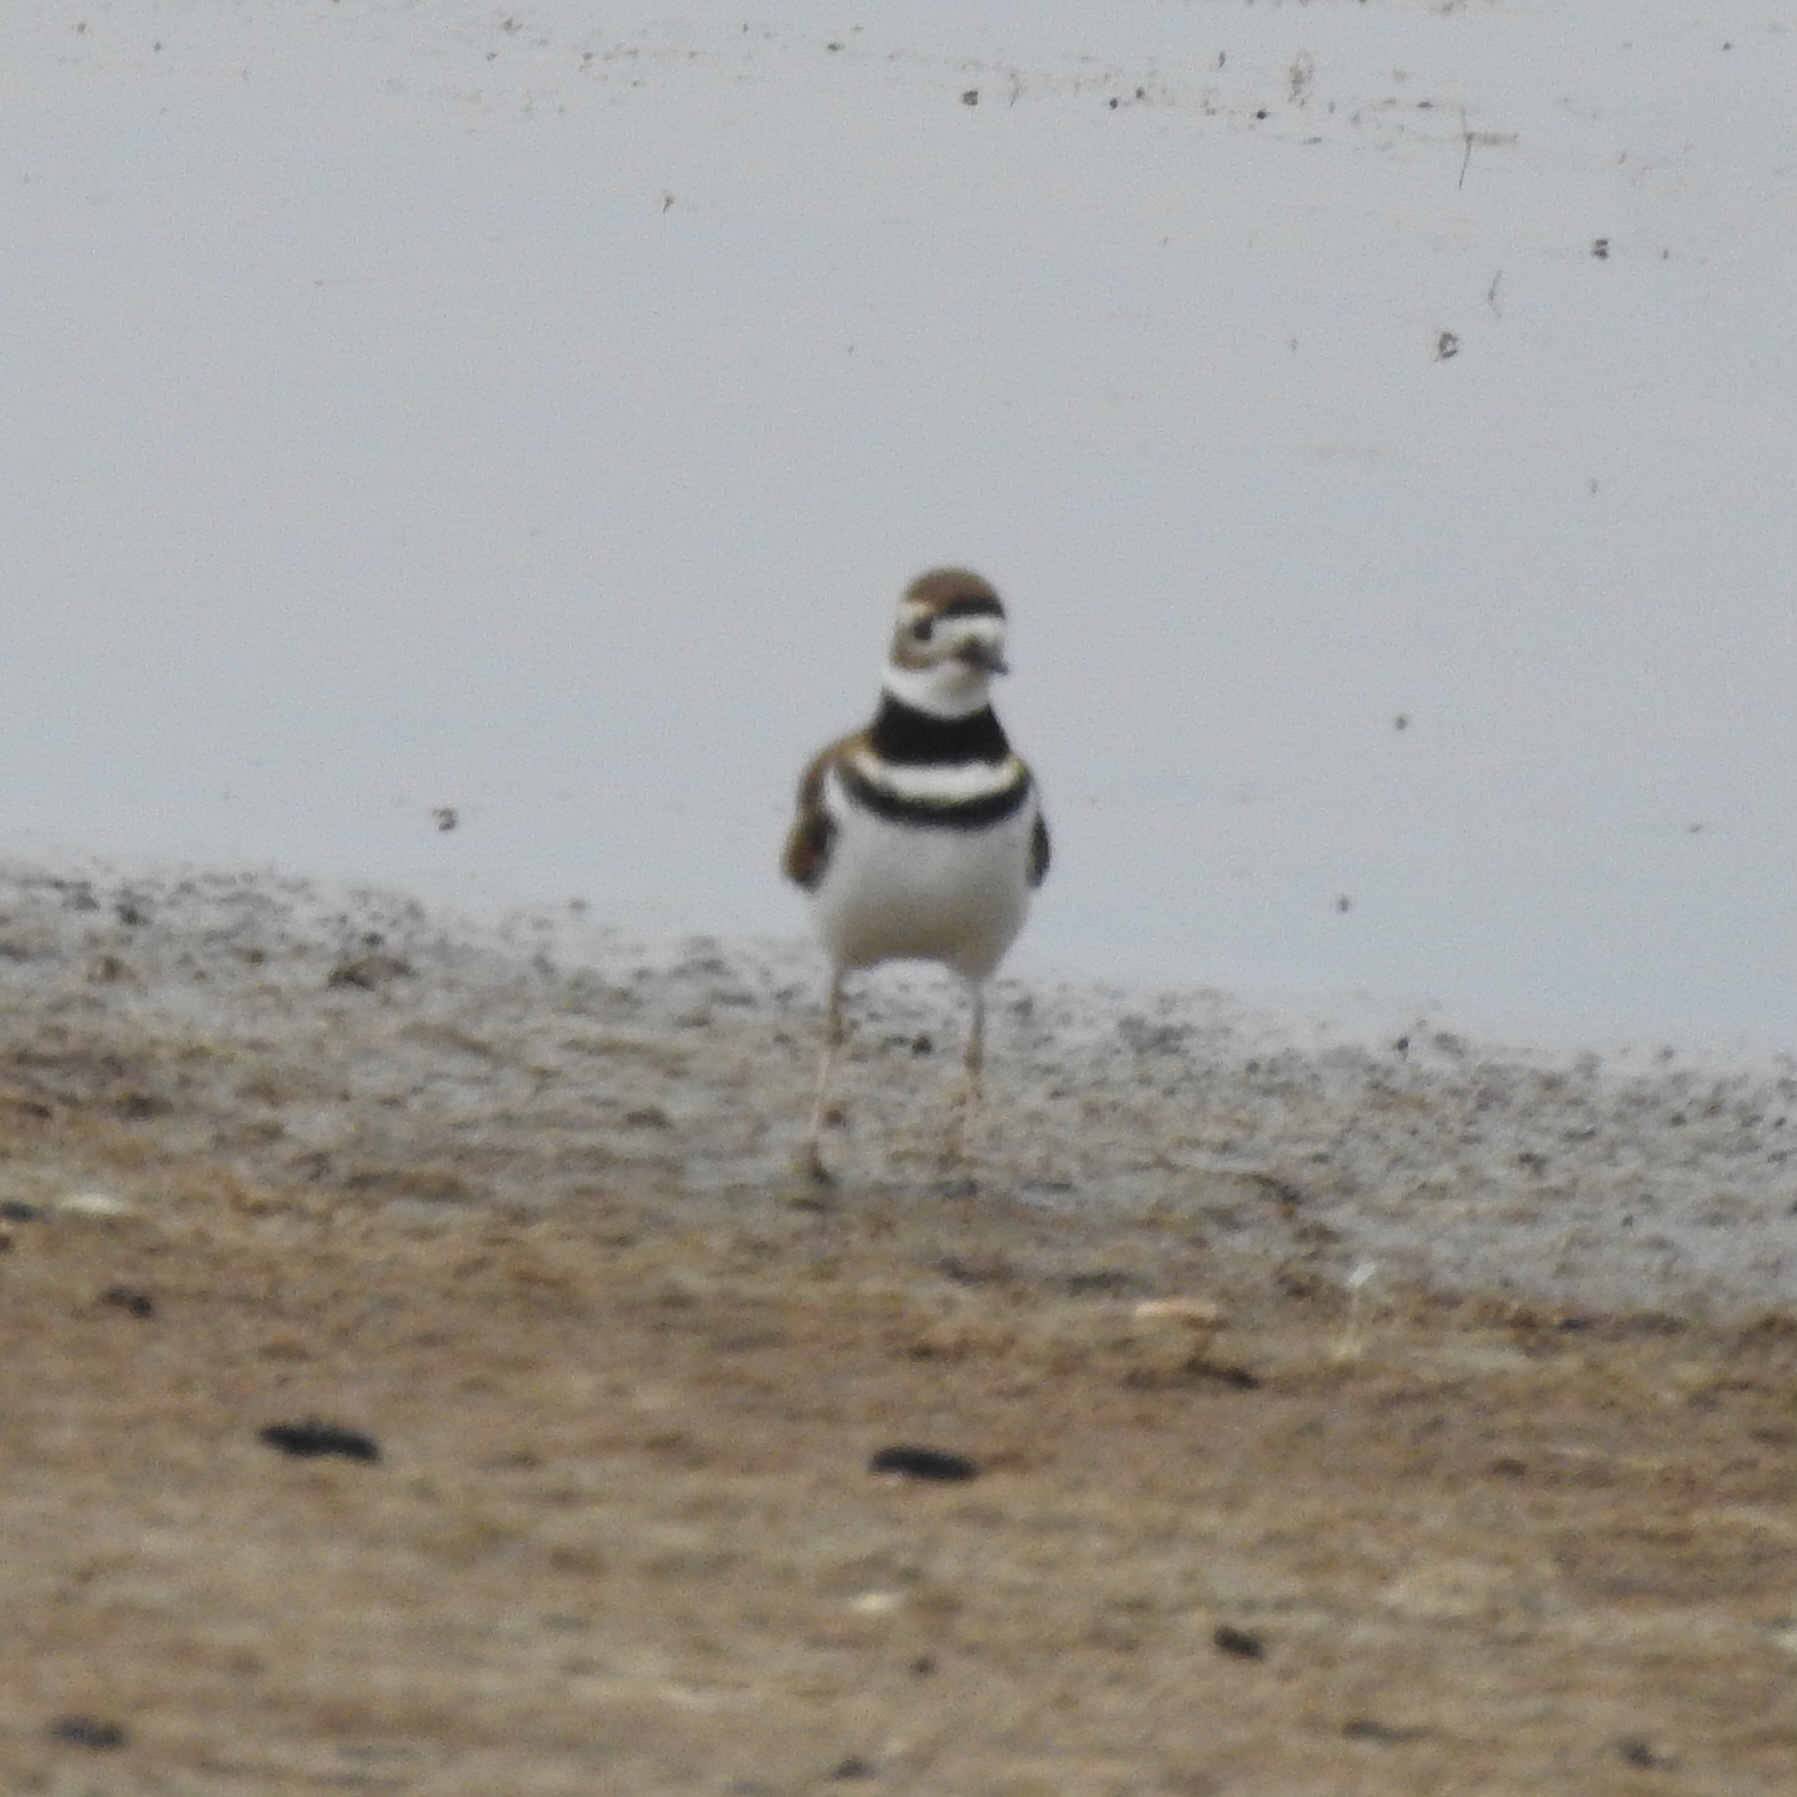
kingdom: Animalia
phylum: Chordata
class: Aves
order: Charadriiformes
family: Charadriidae
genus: Charadrius
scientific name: Charadrius vociferus
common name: Killdeer
